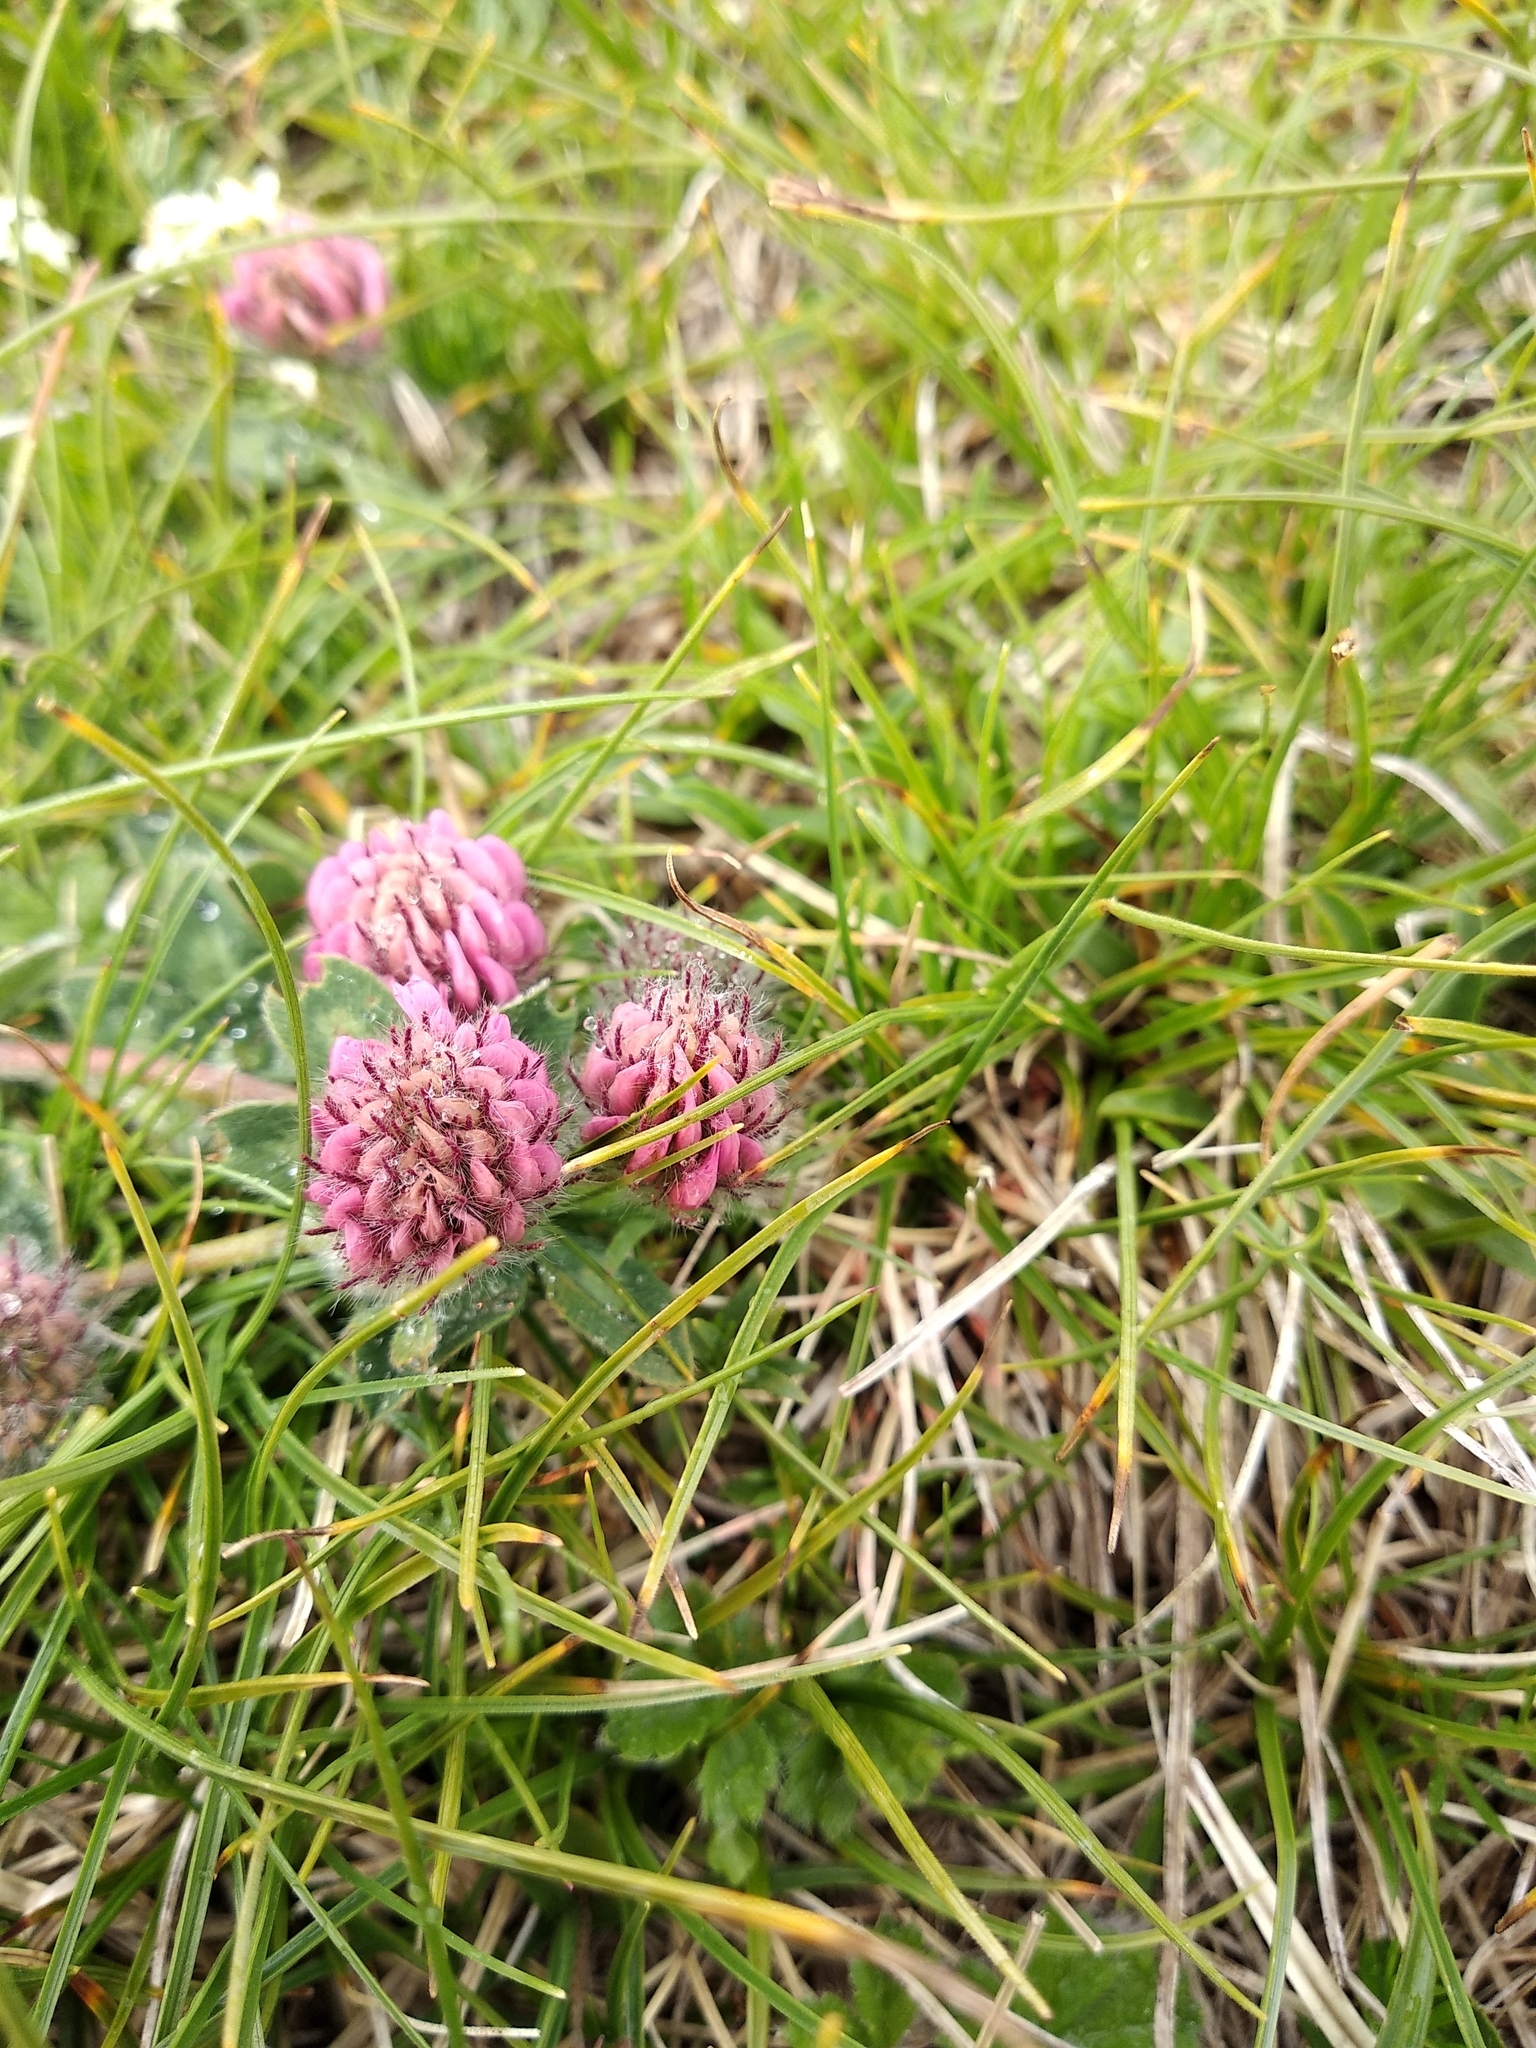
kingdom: Plantae
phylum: Tracheophyta
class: Magnoliopsida
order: Fabales
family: Fabaceae
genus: Trifolium
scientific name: Trifolium pratense
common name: Red clover
